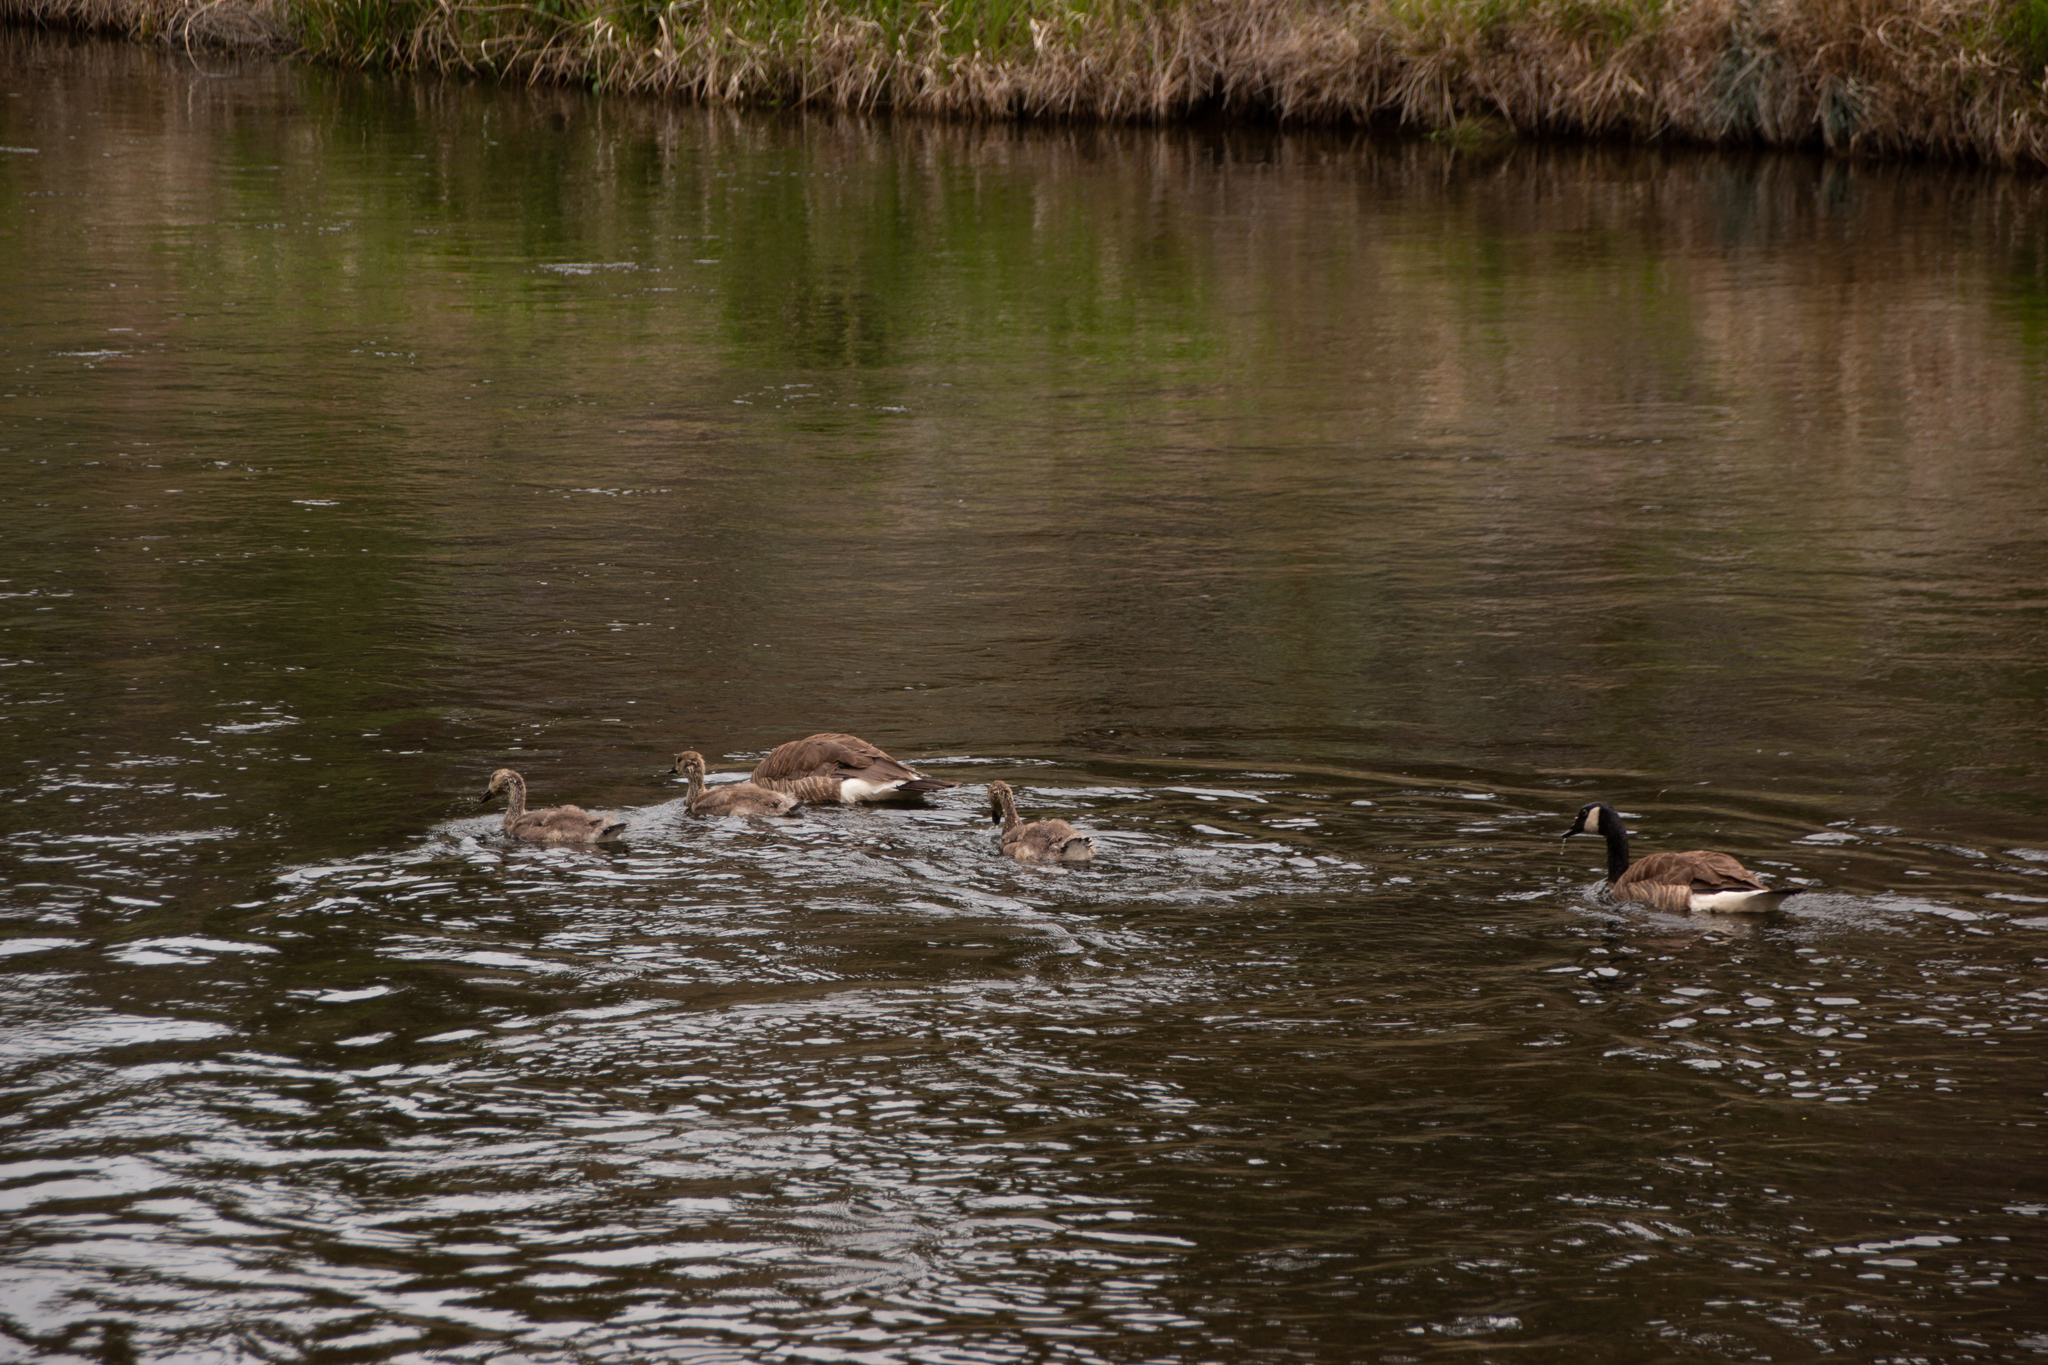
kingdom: Animalia
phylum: Chordata
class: Aves
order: Anseriformes
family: Anatidae
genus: Branta
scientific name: Branta canadensis
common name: Canada goose
